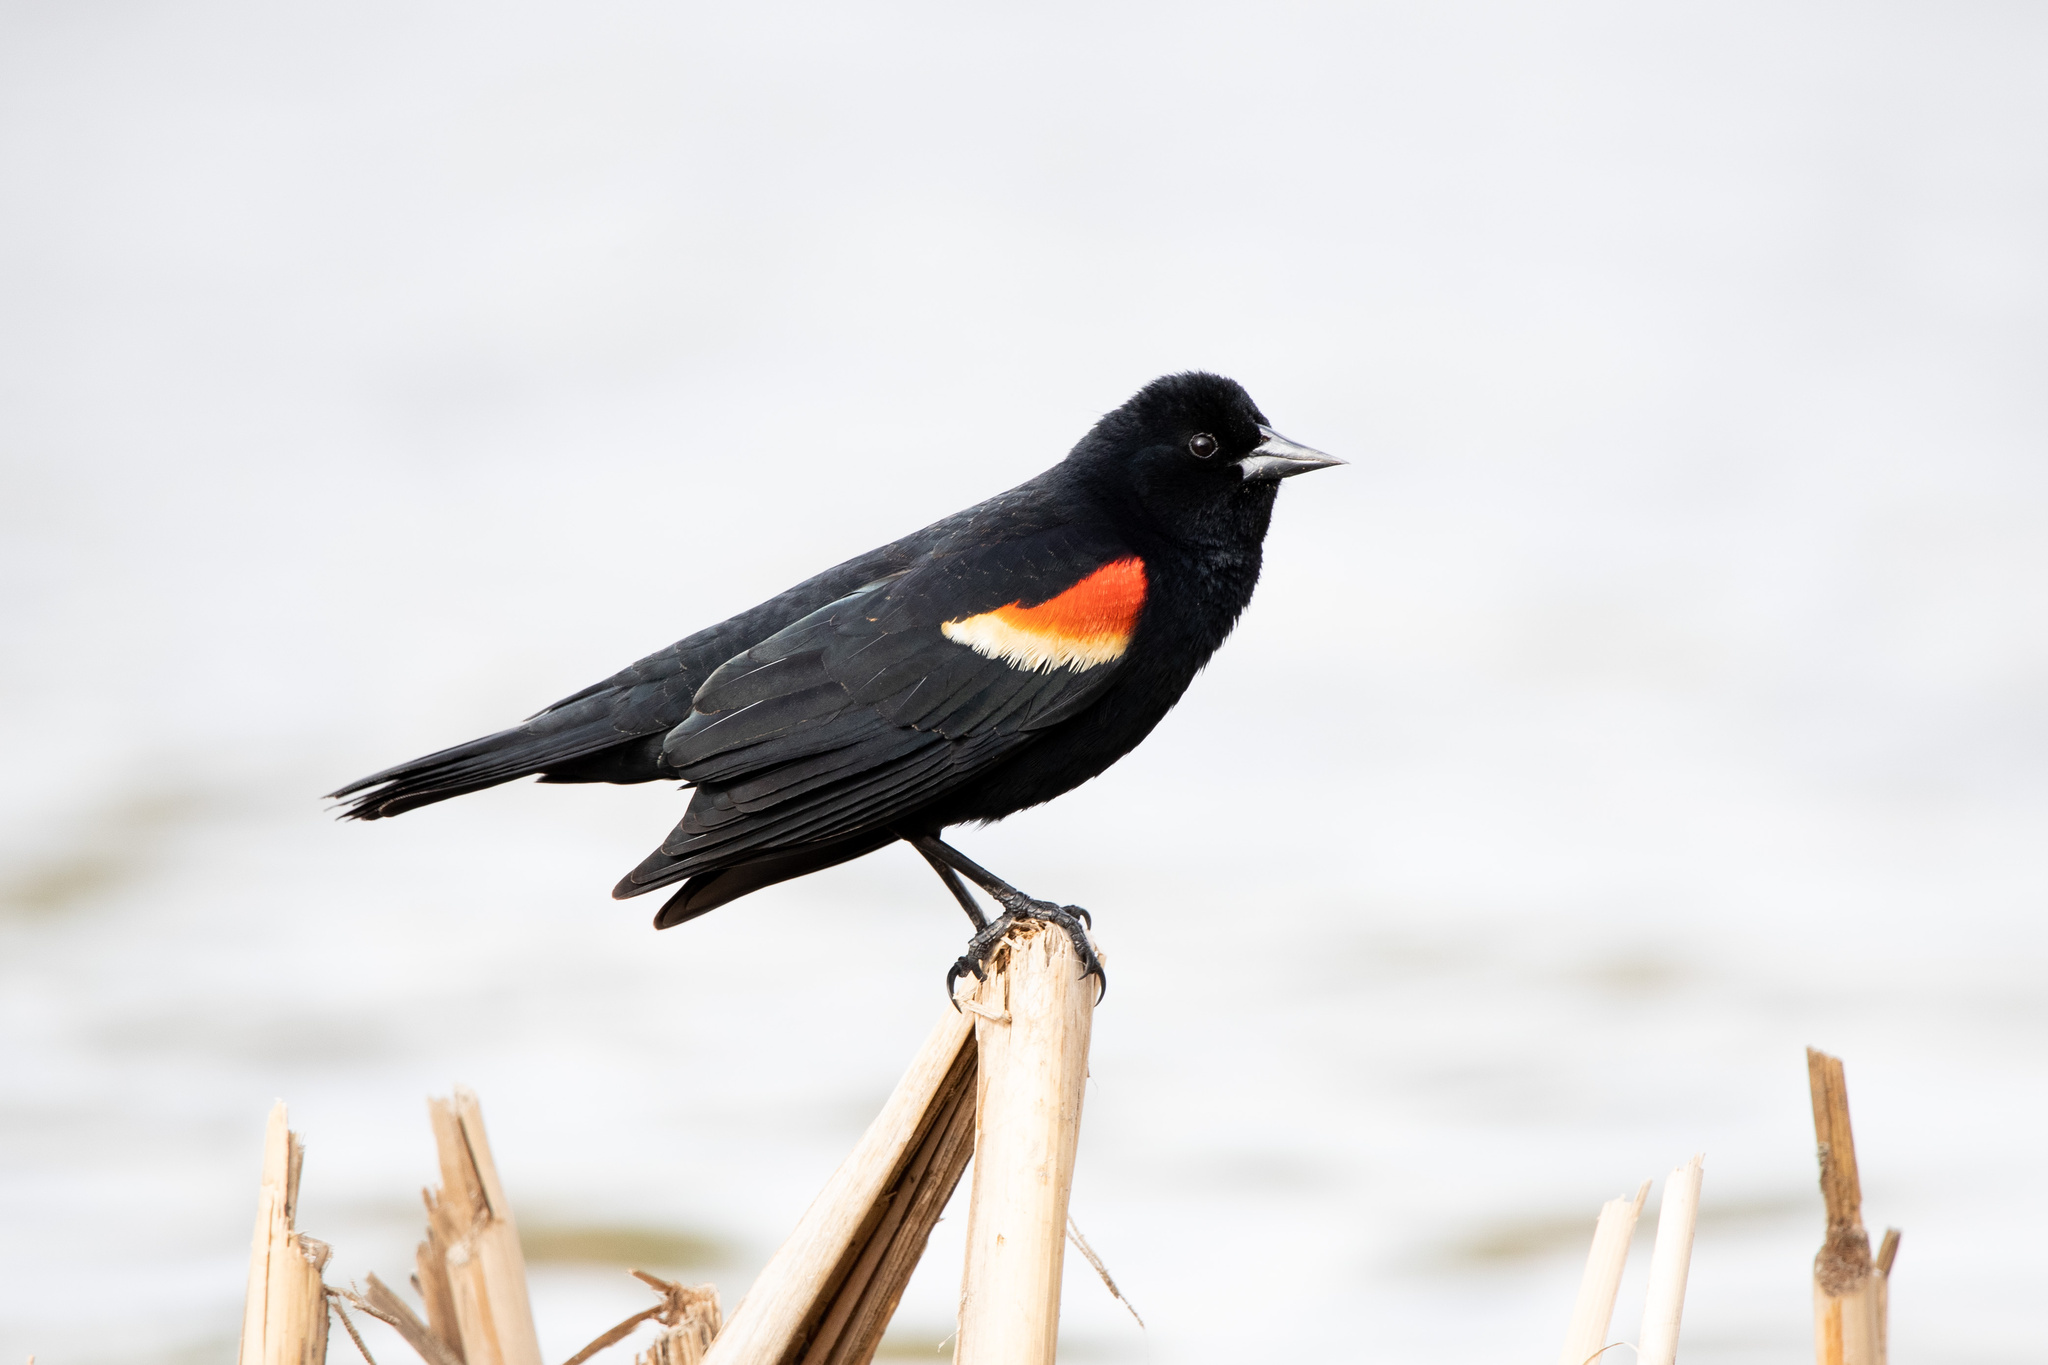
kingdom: Animalia
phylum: Chordata
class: Aves
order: Passeriformes
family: Icteridae
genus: Agelaius
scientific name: Agelaius phoeniceus
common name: Red-winged blackbird
